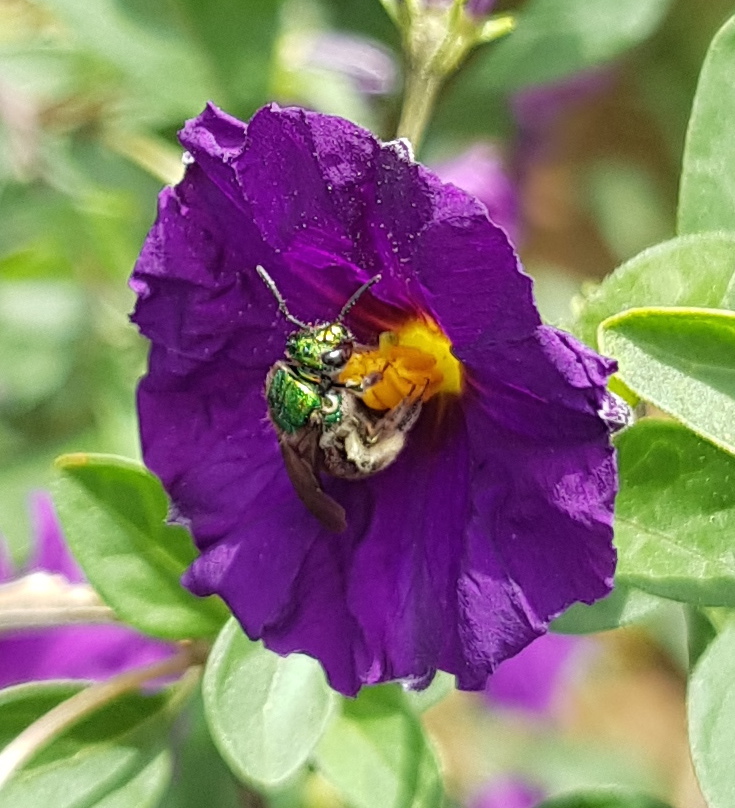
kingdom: Animalia
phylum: Arthropoda
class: Insecta
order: Hymenoptera
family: Halictidae
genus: Augochloropsis
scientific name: Augochloropsis ignita
